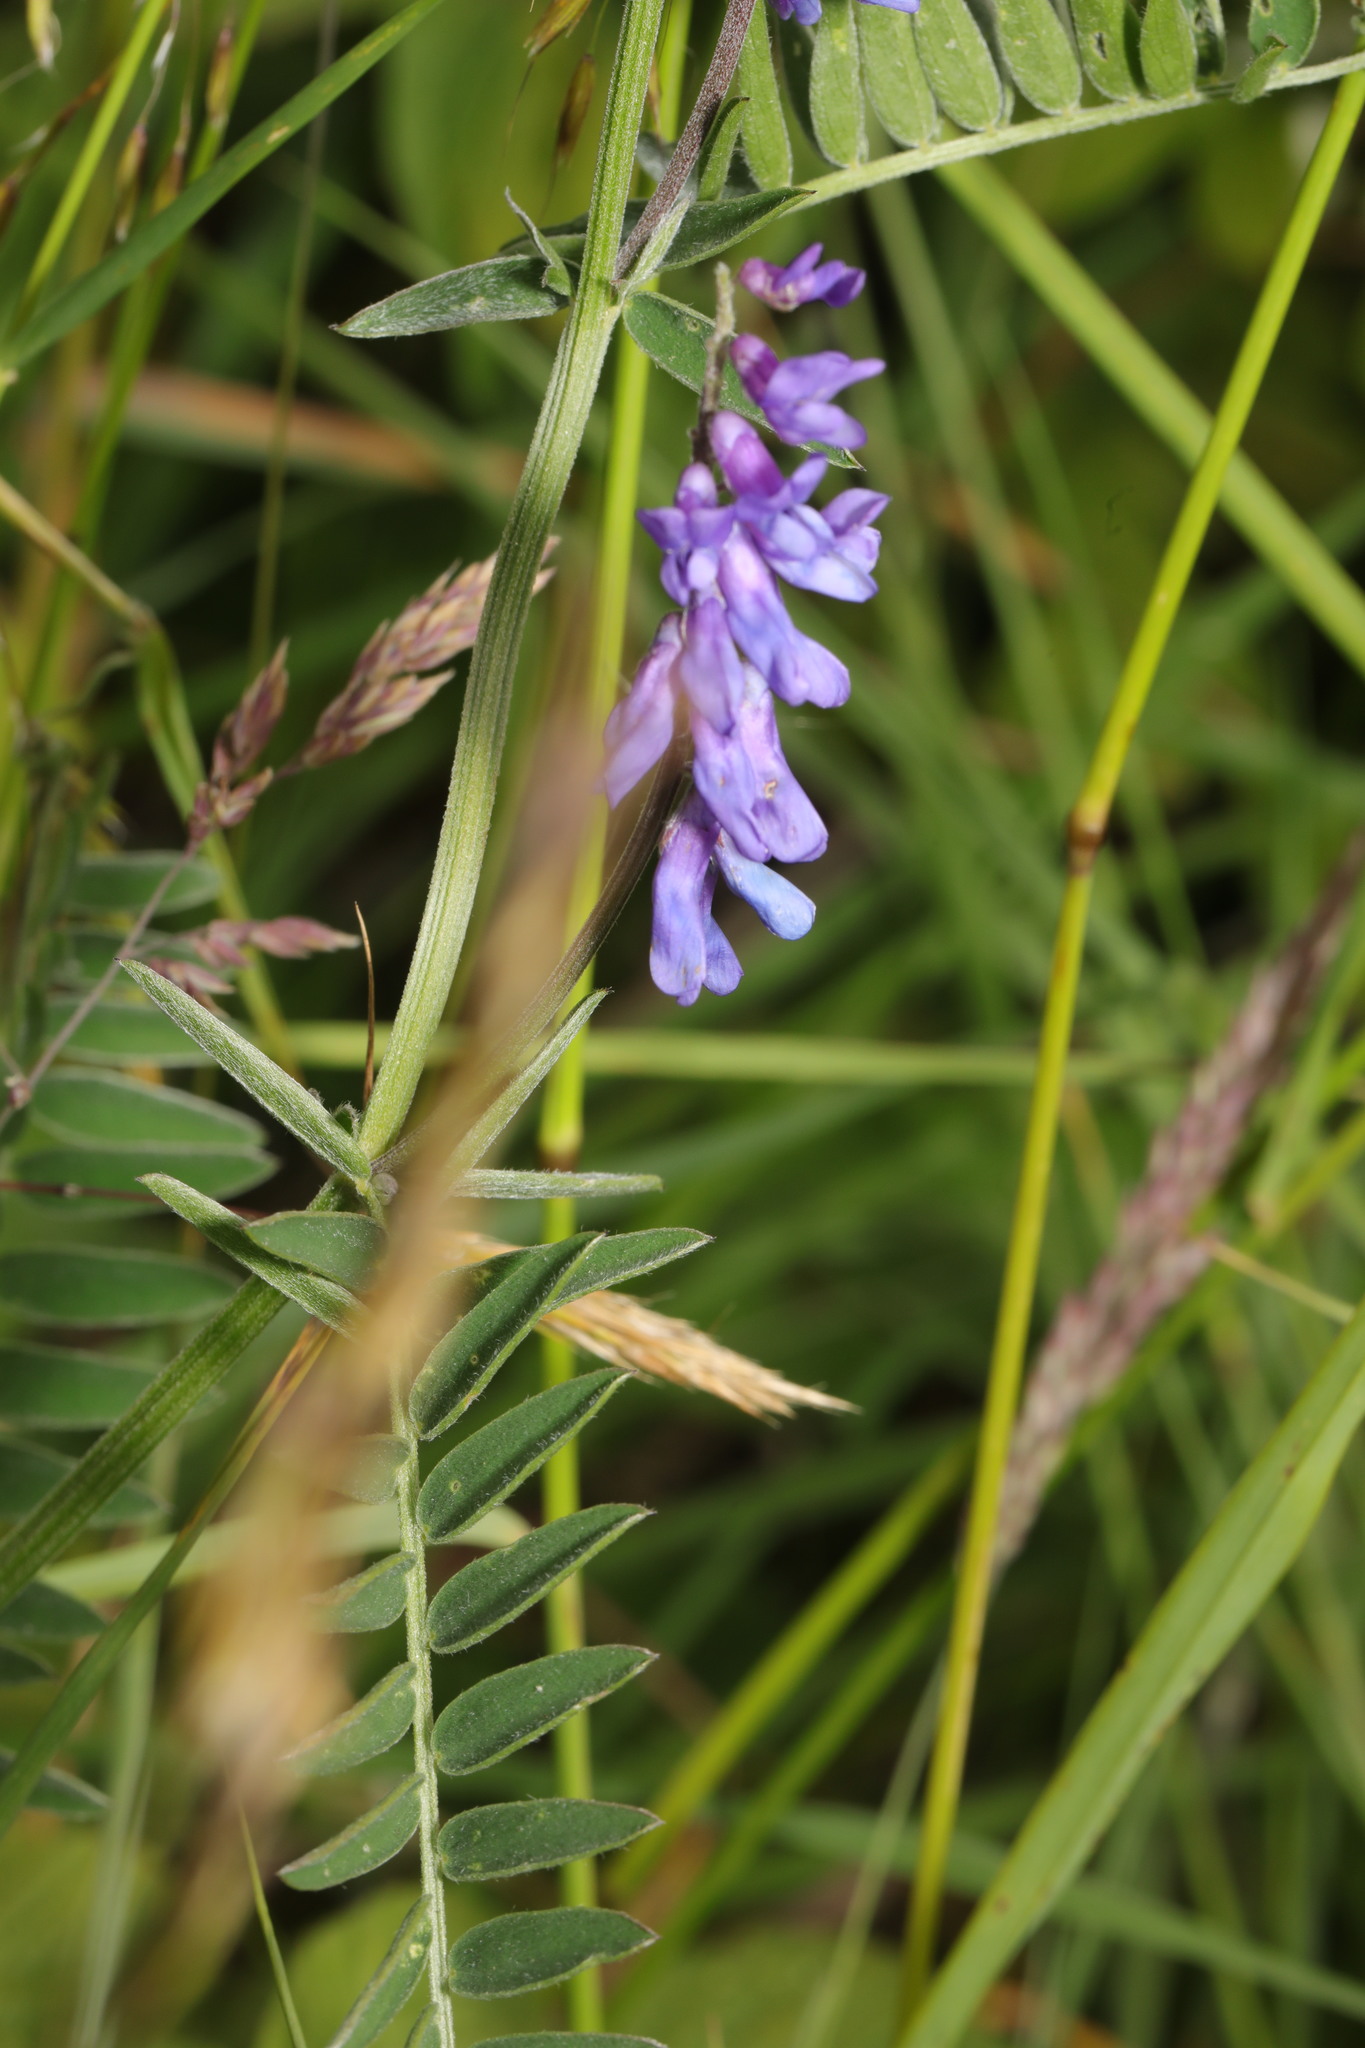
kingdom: Plantae
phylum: Tracheophyta
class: Magnoliopsida
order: Fabales
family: Fabaceae
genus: Vicia
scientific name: Vicia cracca
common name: Bird vetch
